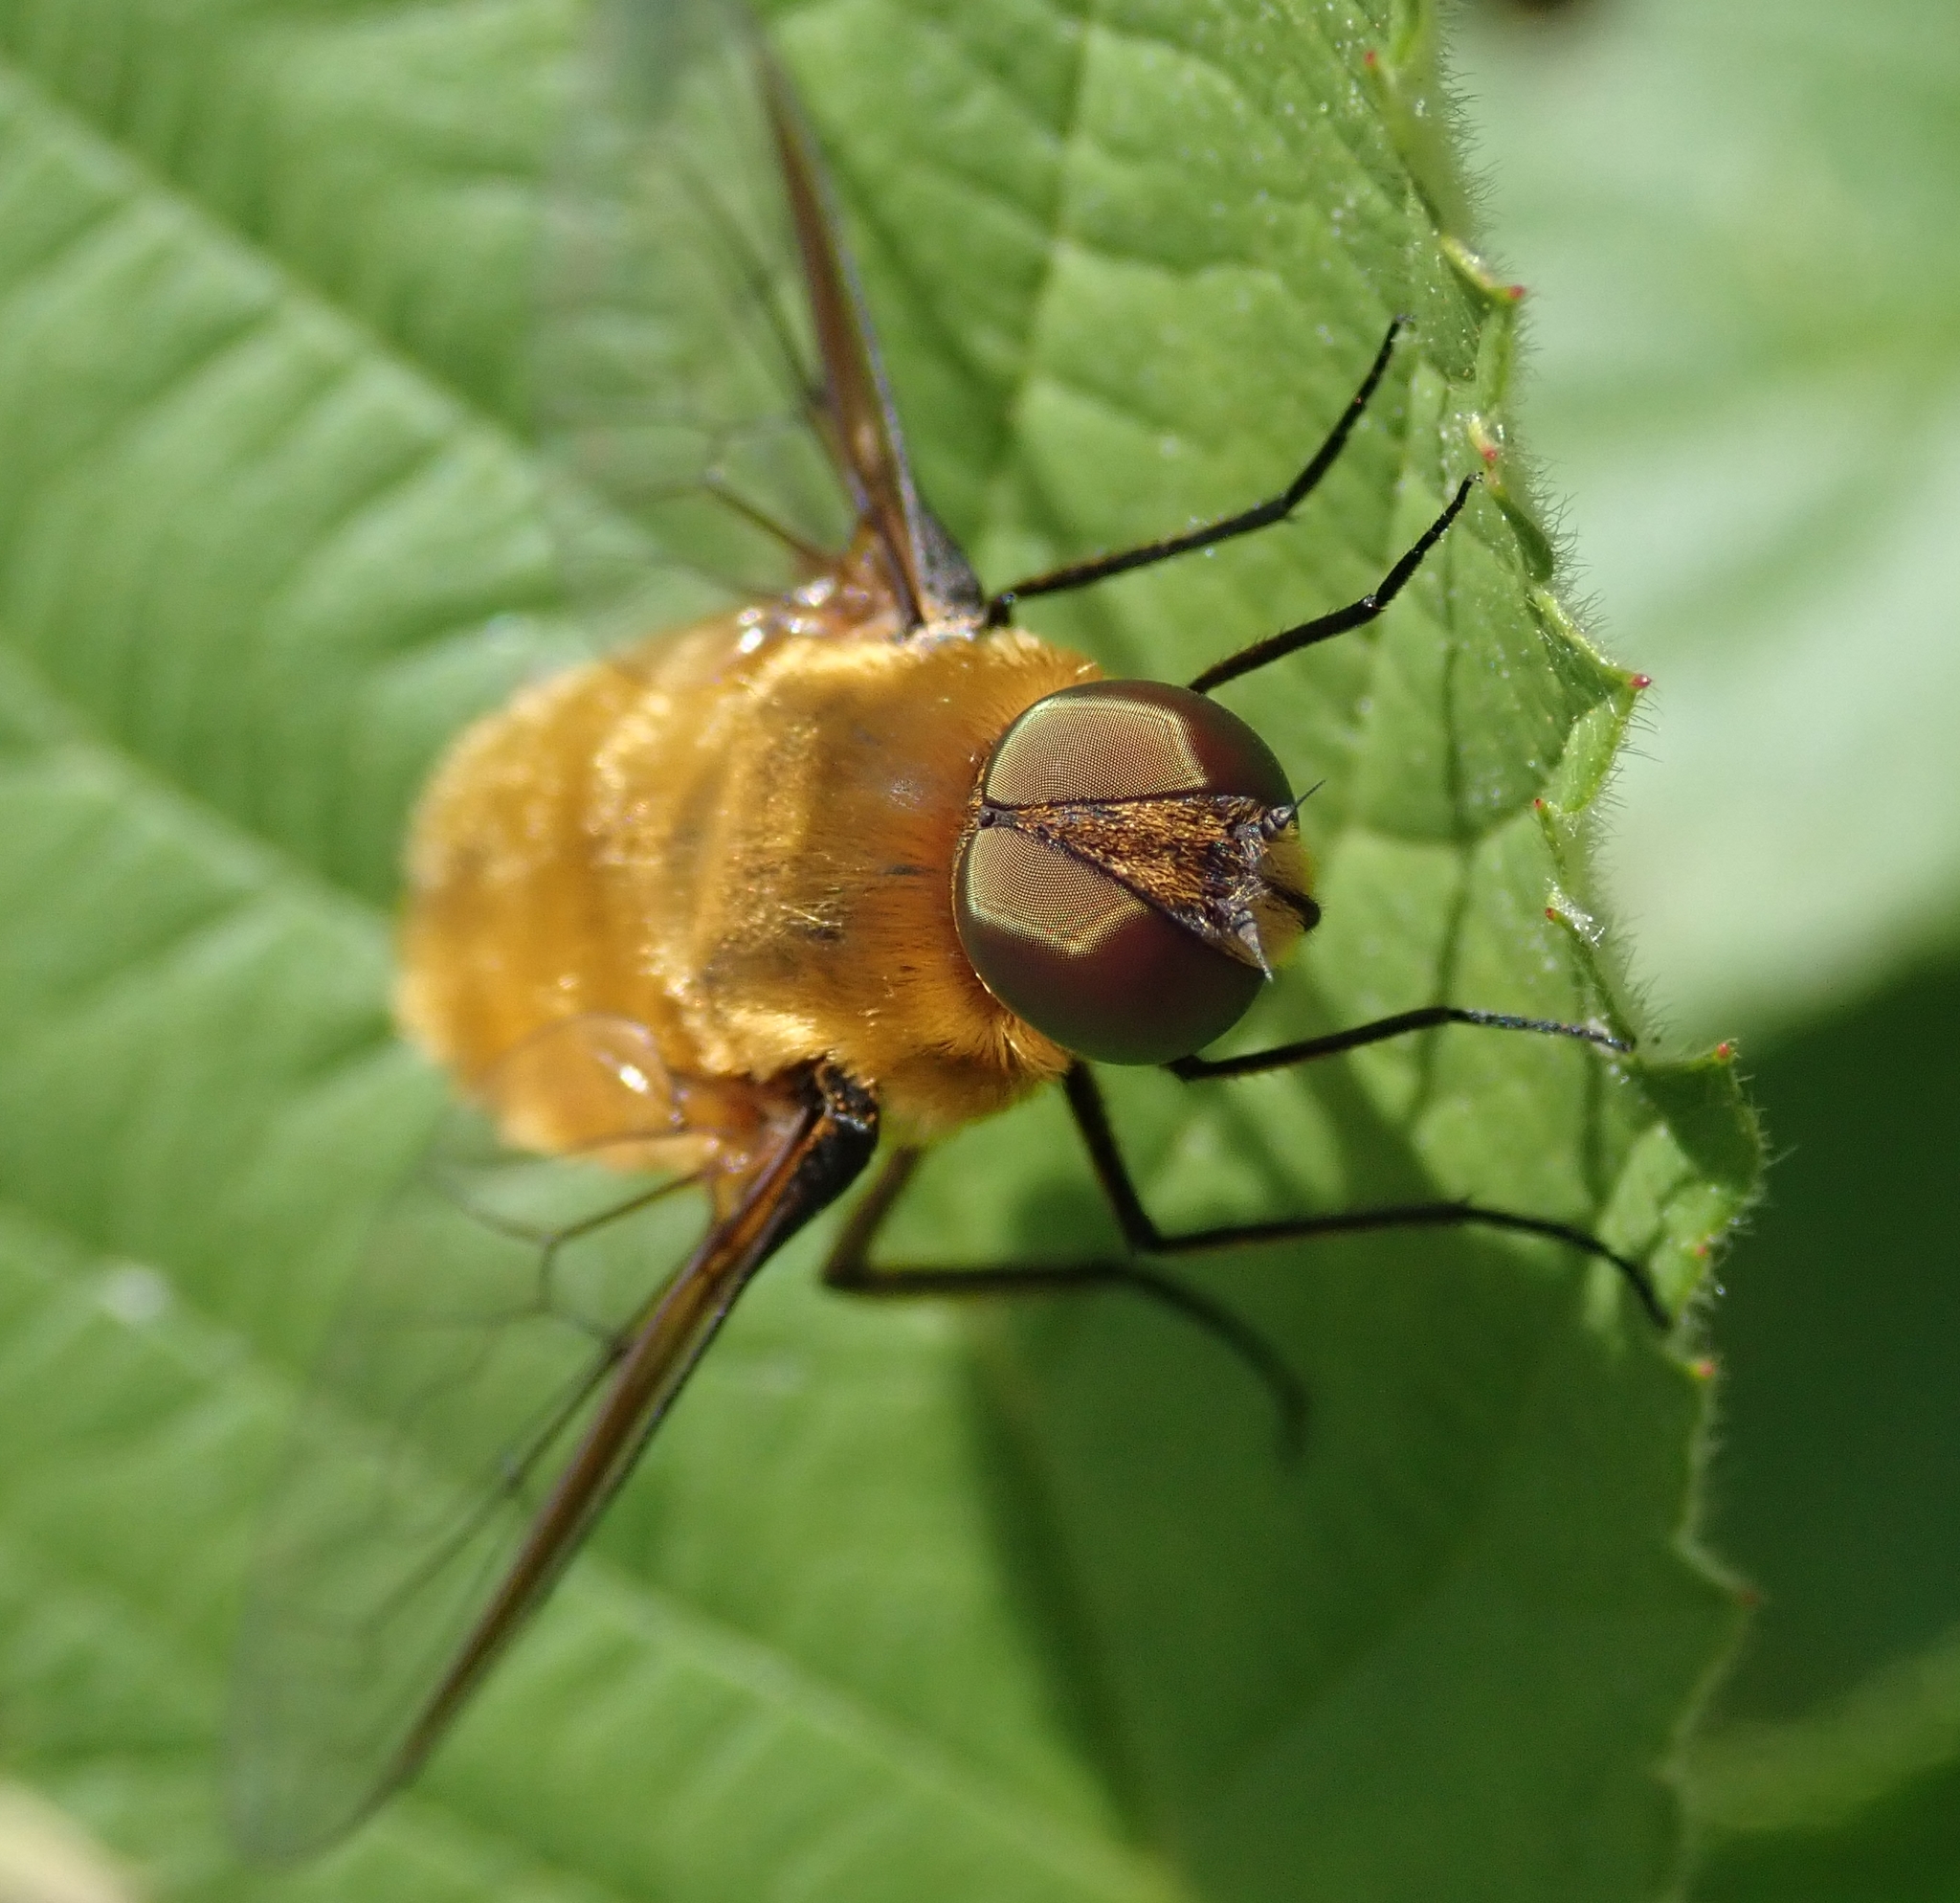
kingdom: Animalia
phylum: Arthropoda
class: Insecta
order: Diptera
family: Bombyliidae
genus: Villa
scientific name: Villa hottentotta
